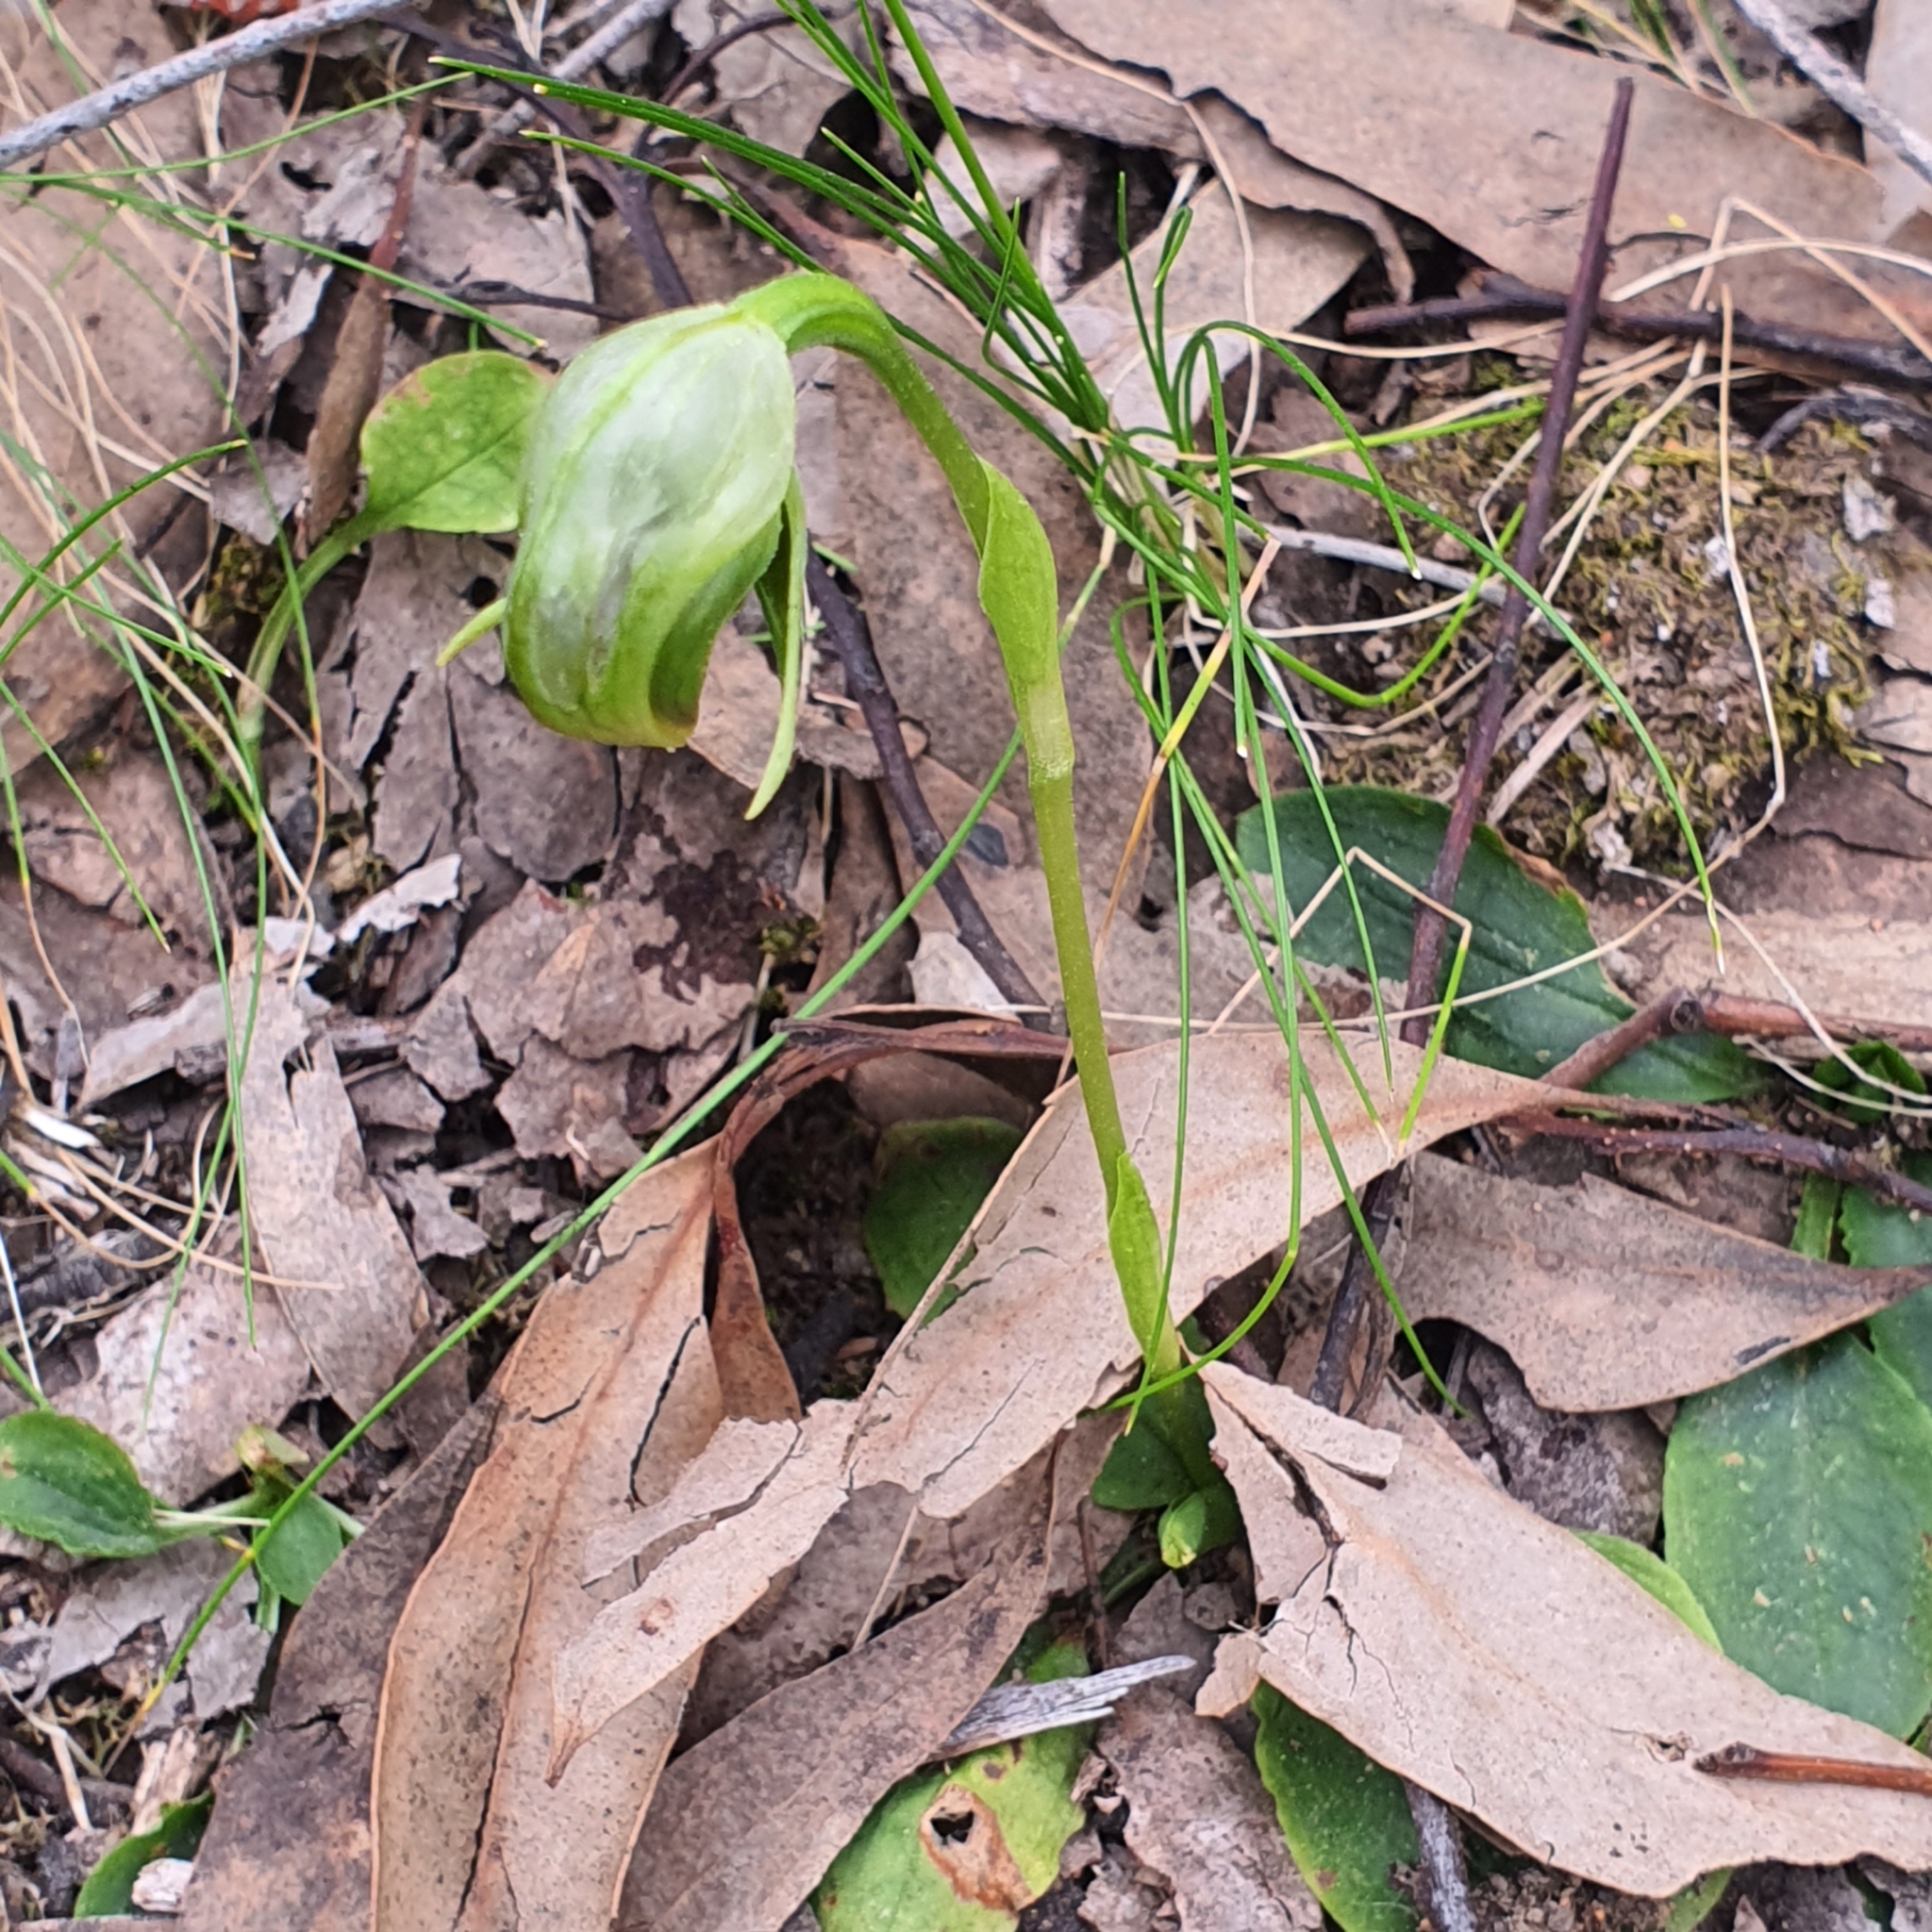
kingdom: Plantae
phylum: Tracheophyta
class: Liliopsida
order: Asparagales
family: Orchidaceae
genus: Pterostylis
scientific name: Pterostylis nutans
